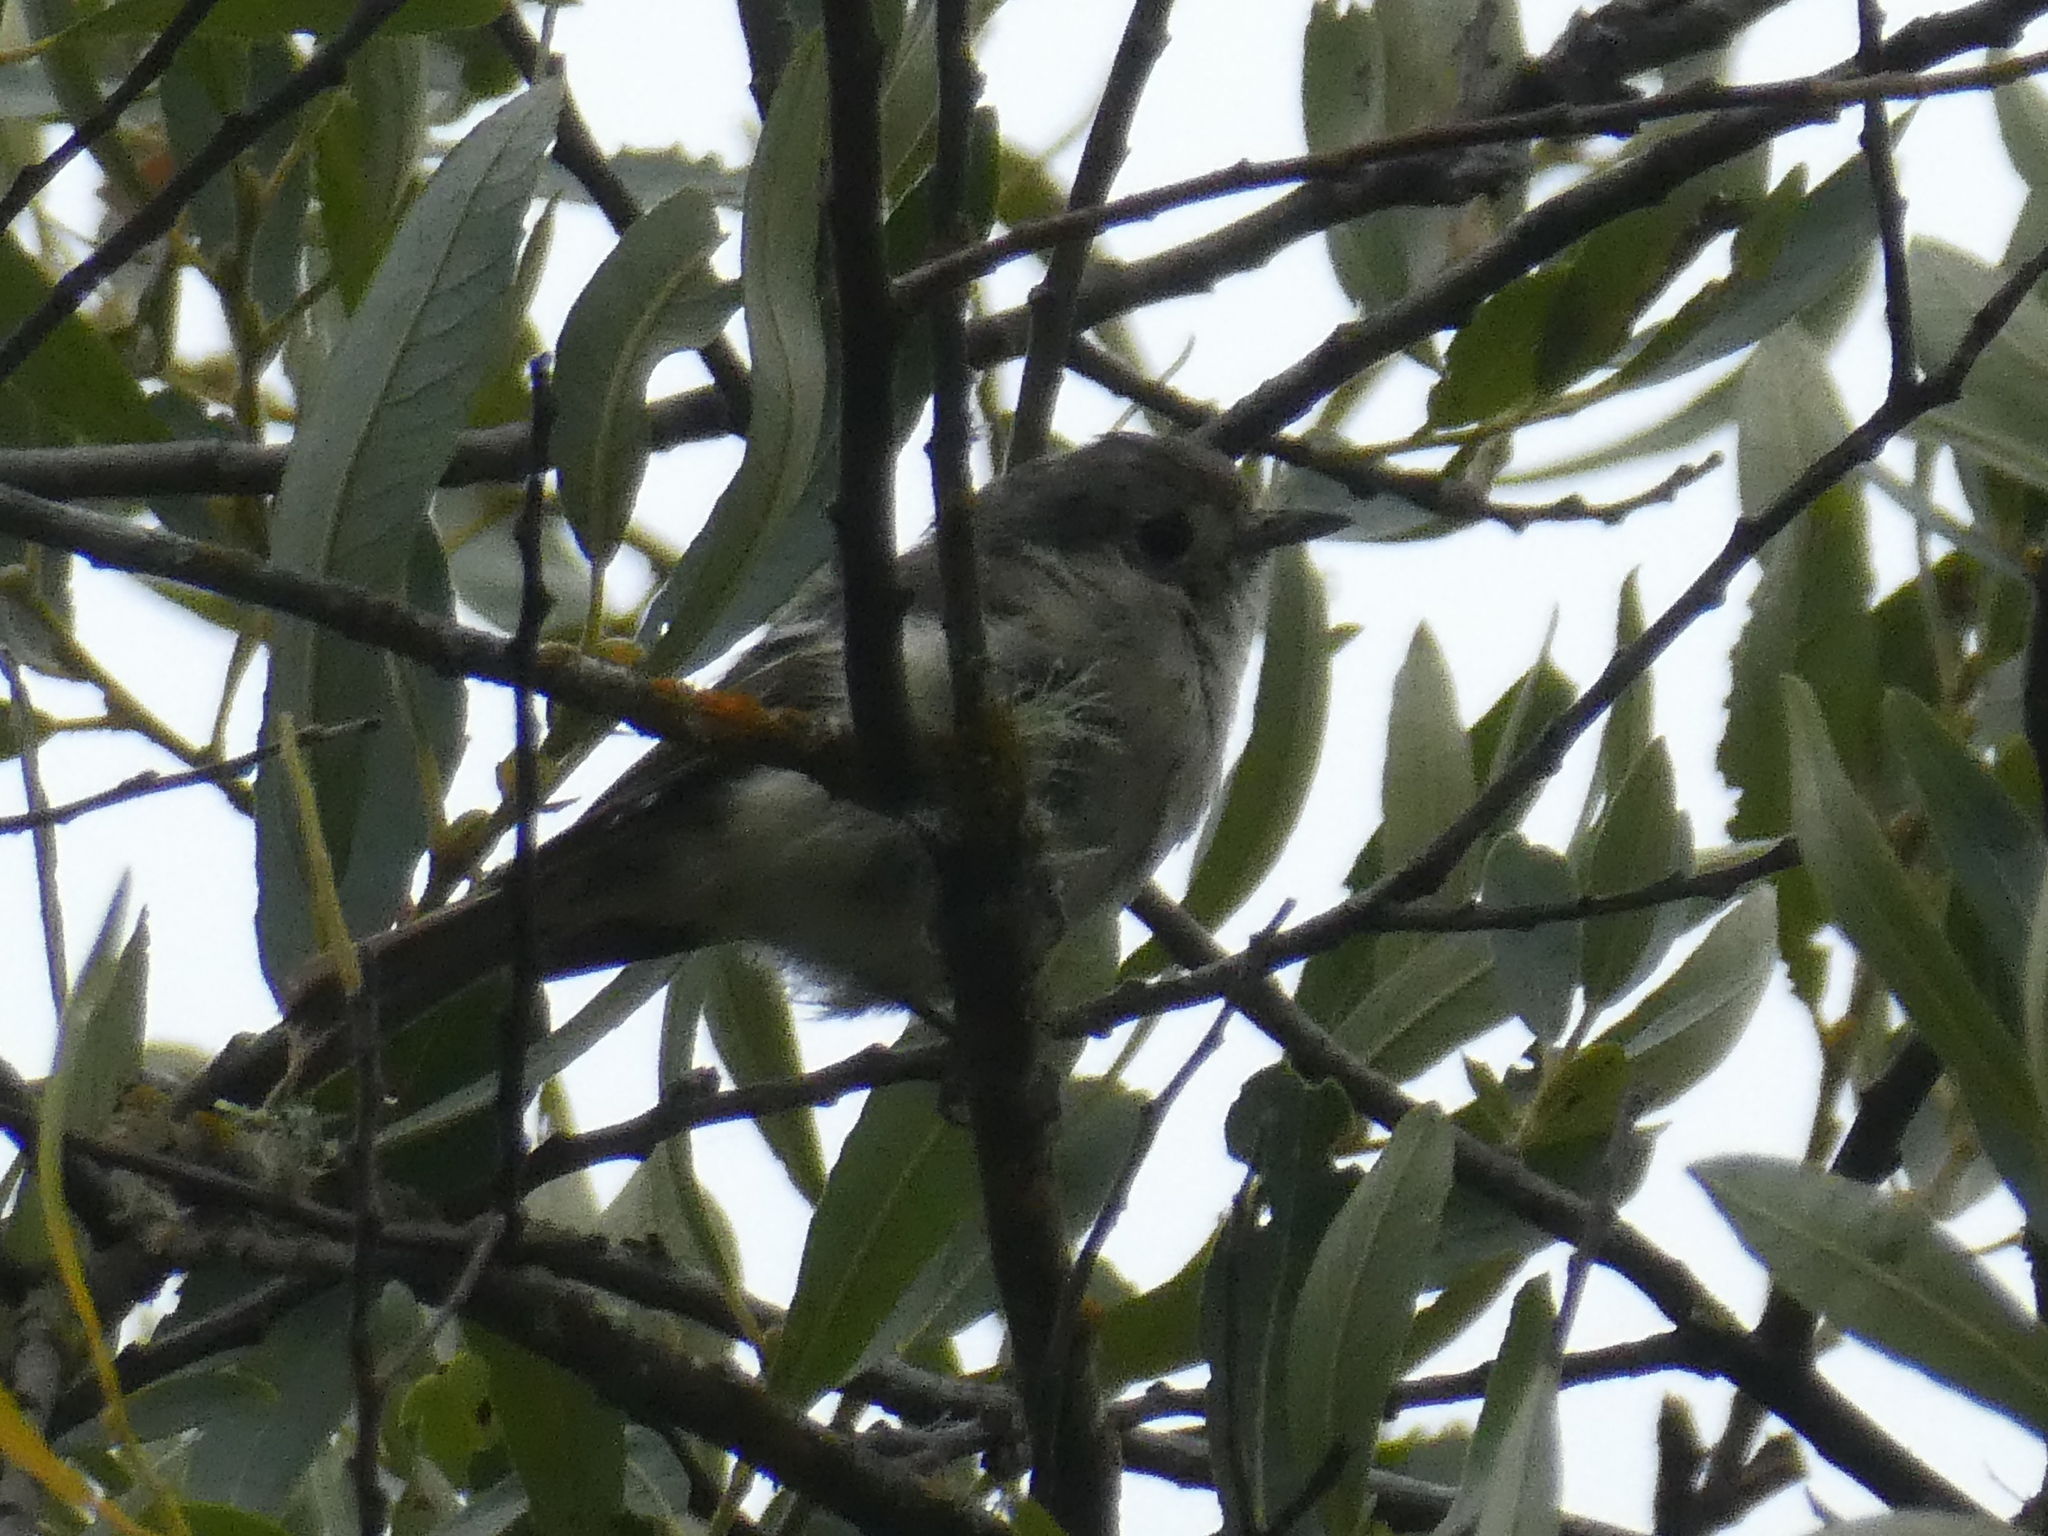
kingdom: Animalia
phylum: Chordata
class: Aves
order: Passeriformes
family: Vireonidae
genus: Vireo
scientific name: Vireo huttoni
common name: Hutton's vireo
